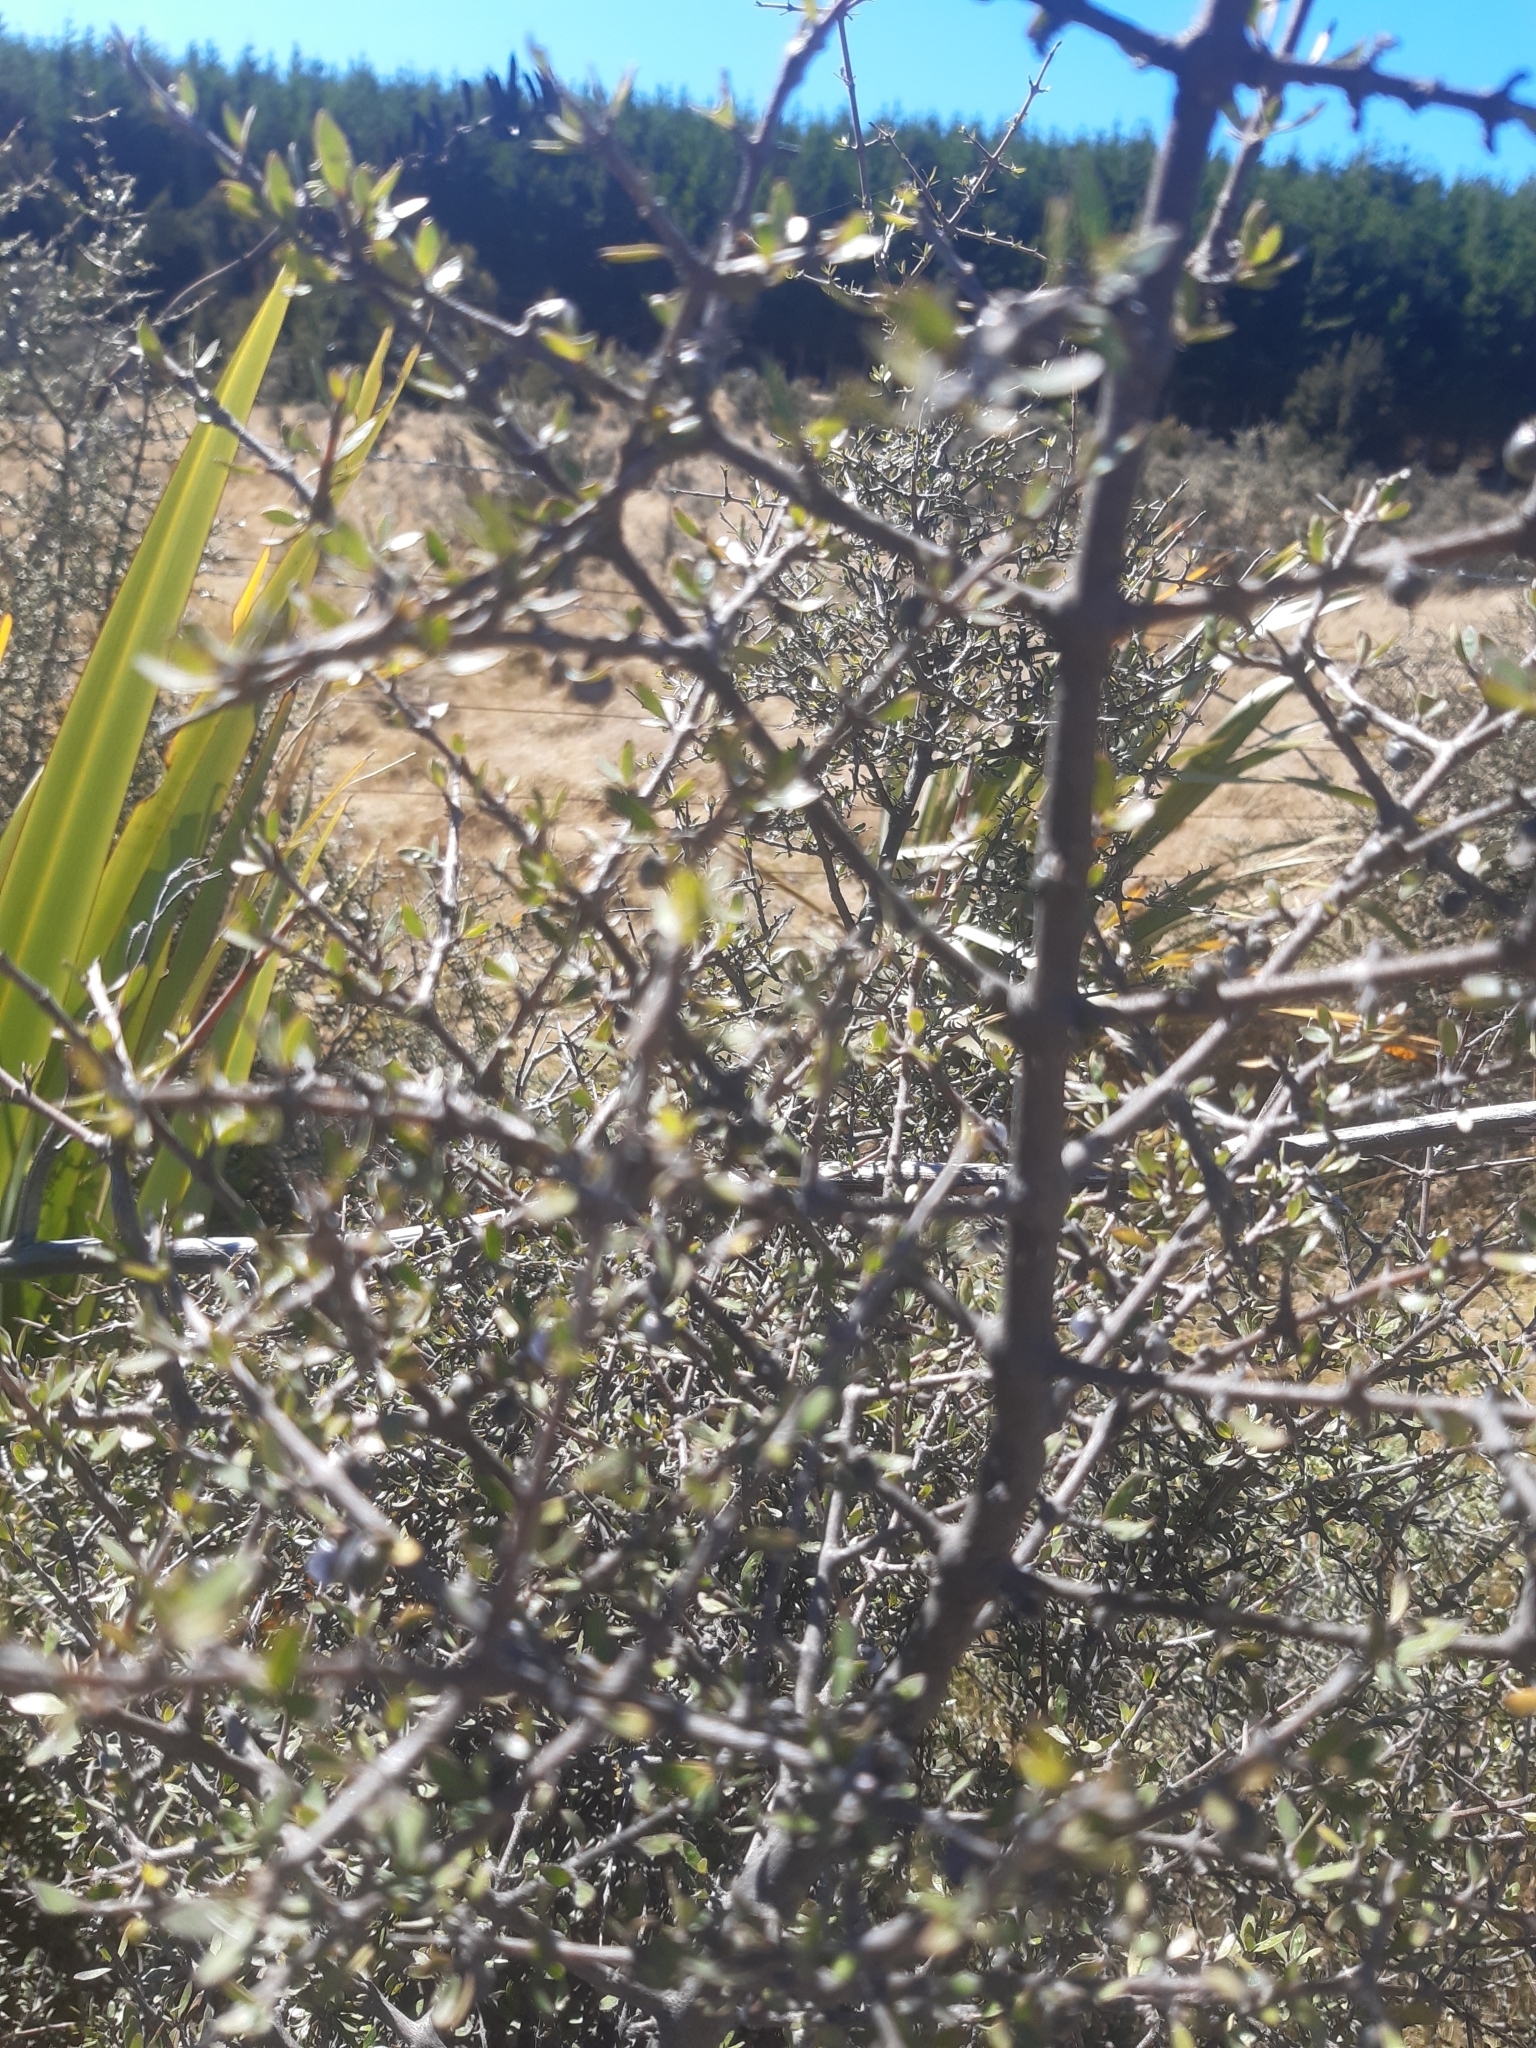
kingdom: Plantae
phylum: Tracheophyta
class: Magnoliopsida
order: Gentianales
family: Rubiaceae
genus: Coprosma
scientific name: Coprosma propinqua
